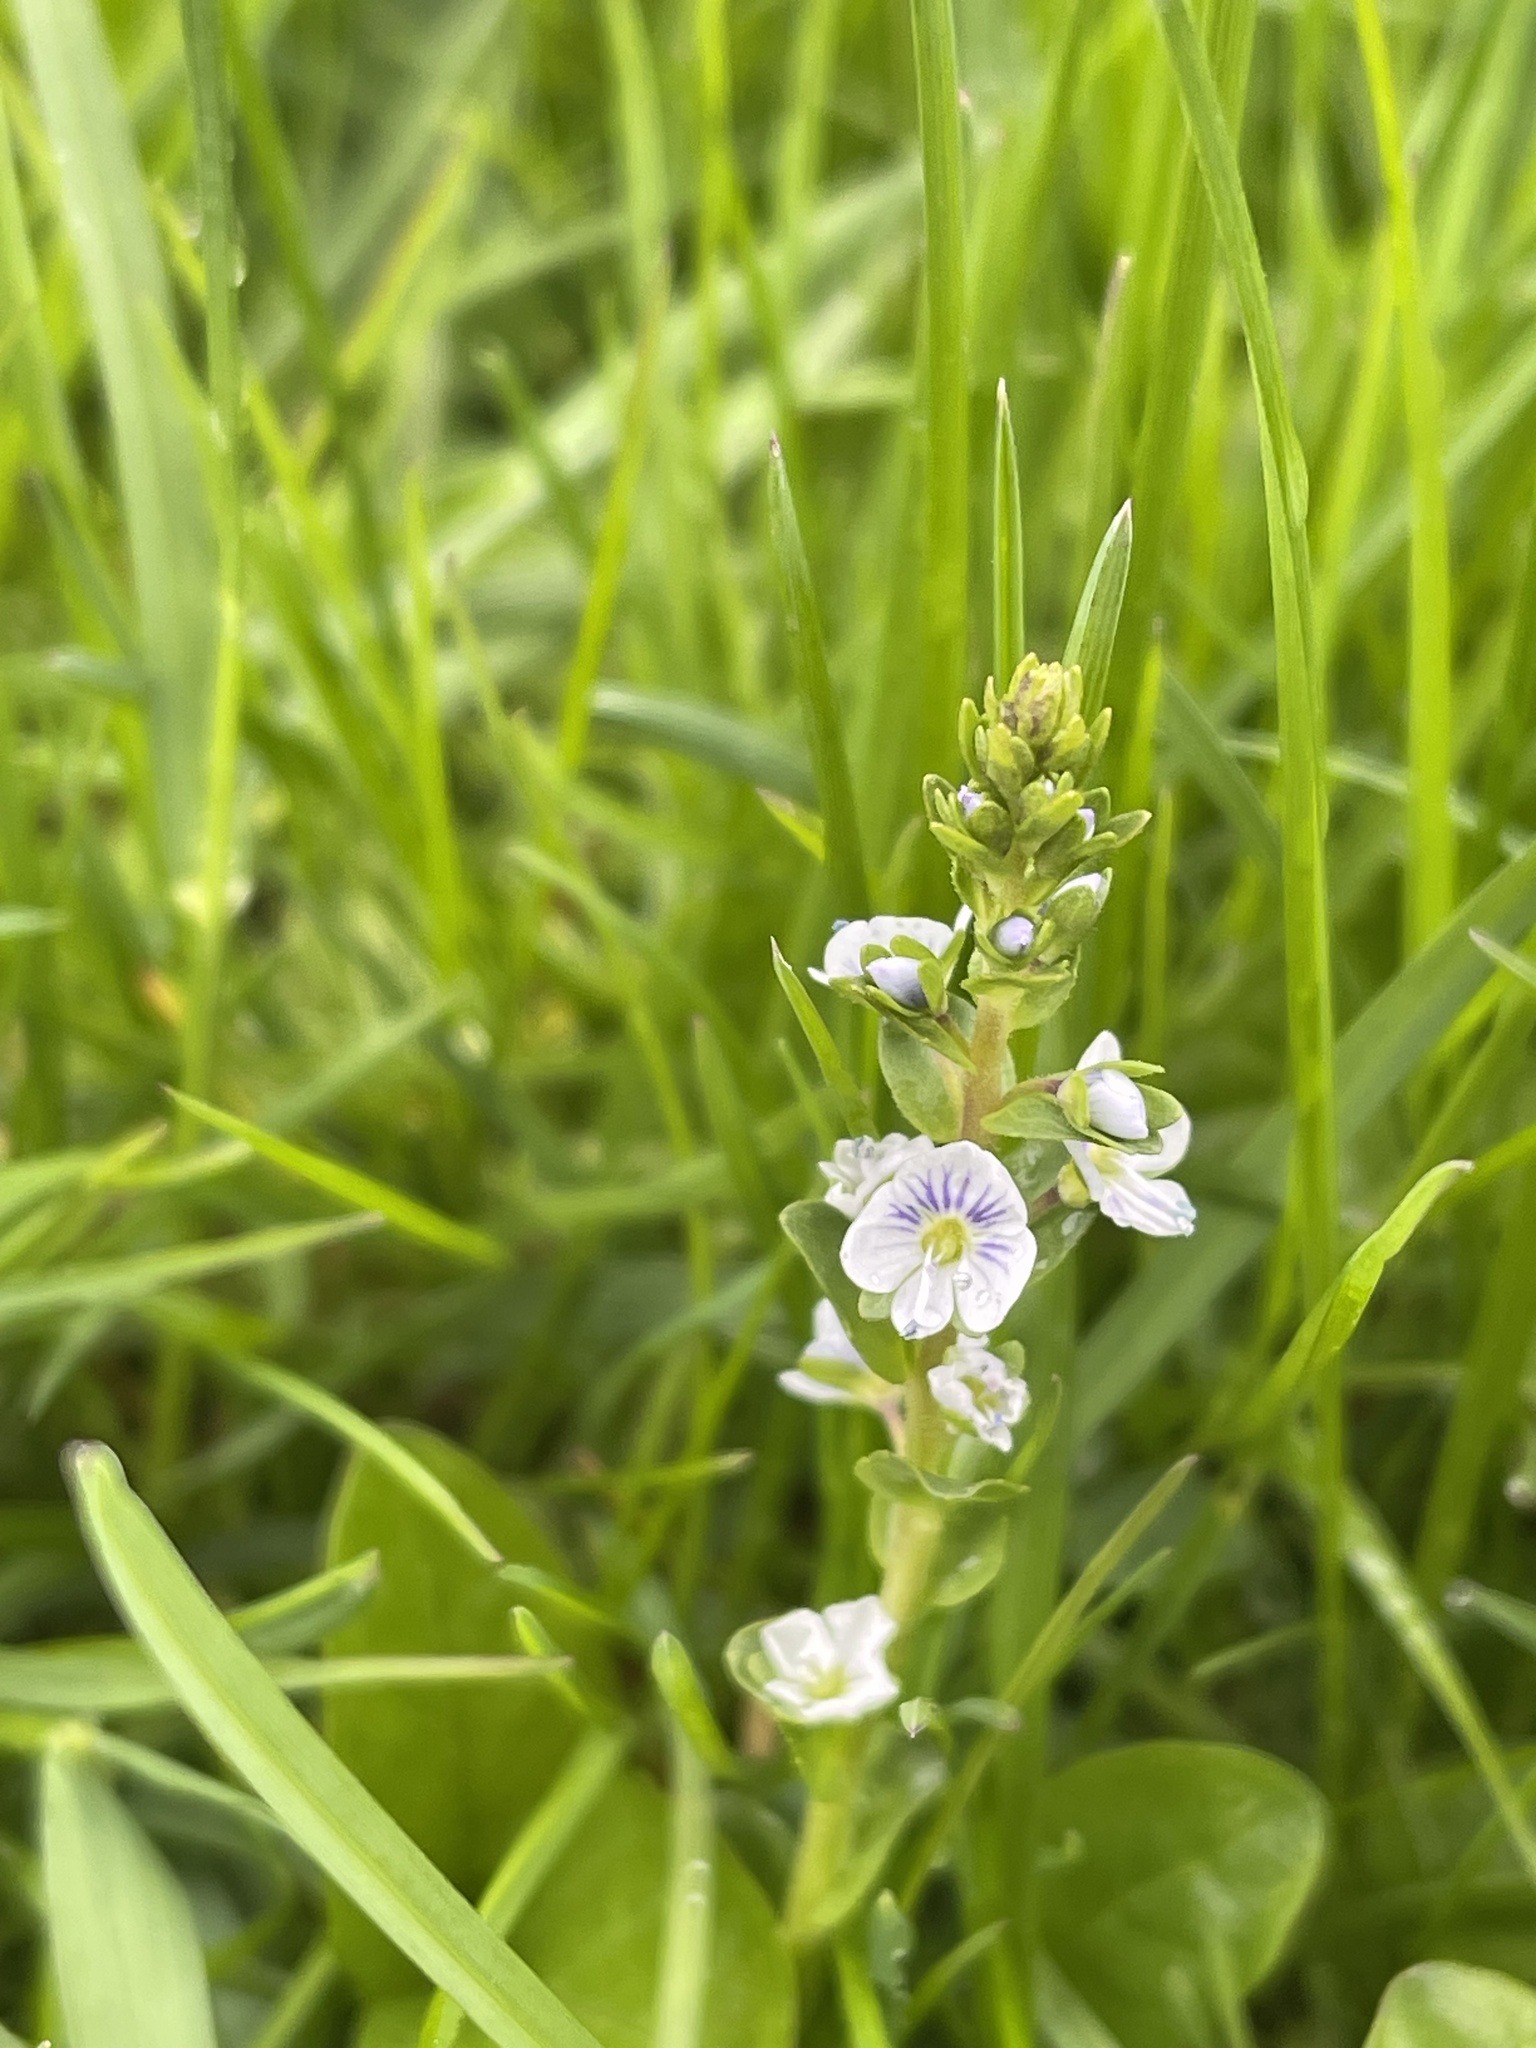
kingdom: Plantae
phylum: Tracheophyta
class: Magnoliopsida
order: Lamiales
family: Plantaginaceae
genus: Veronica
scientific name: Veronica serpyllifolia
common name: Thyme-leaved speedwell
